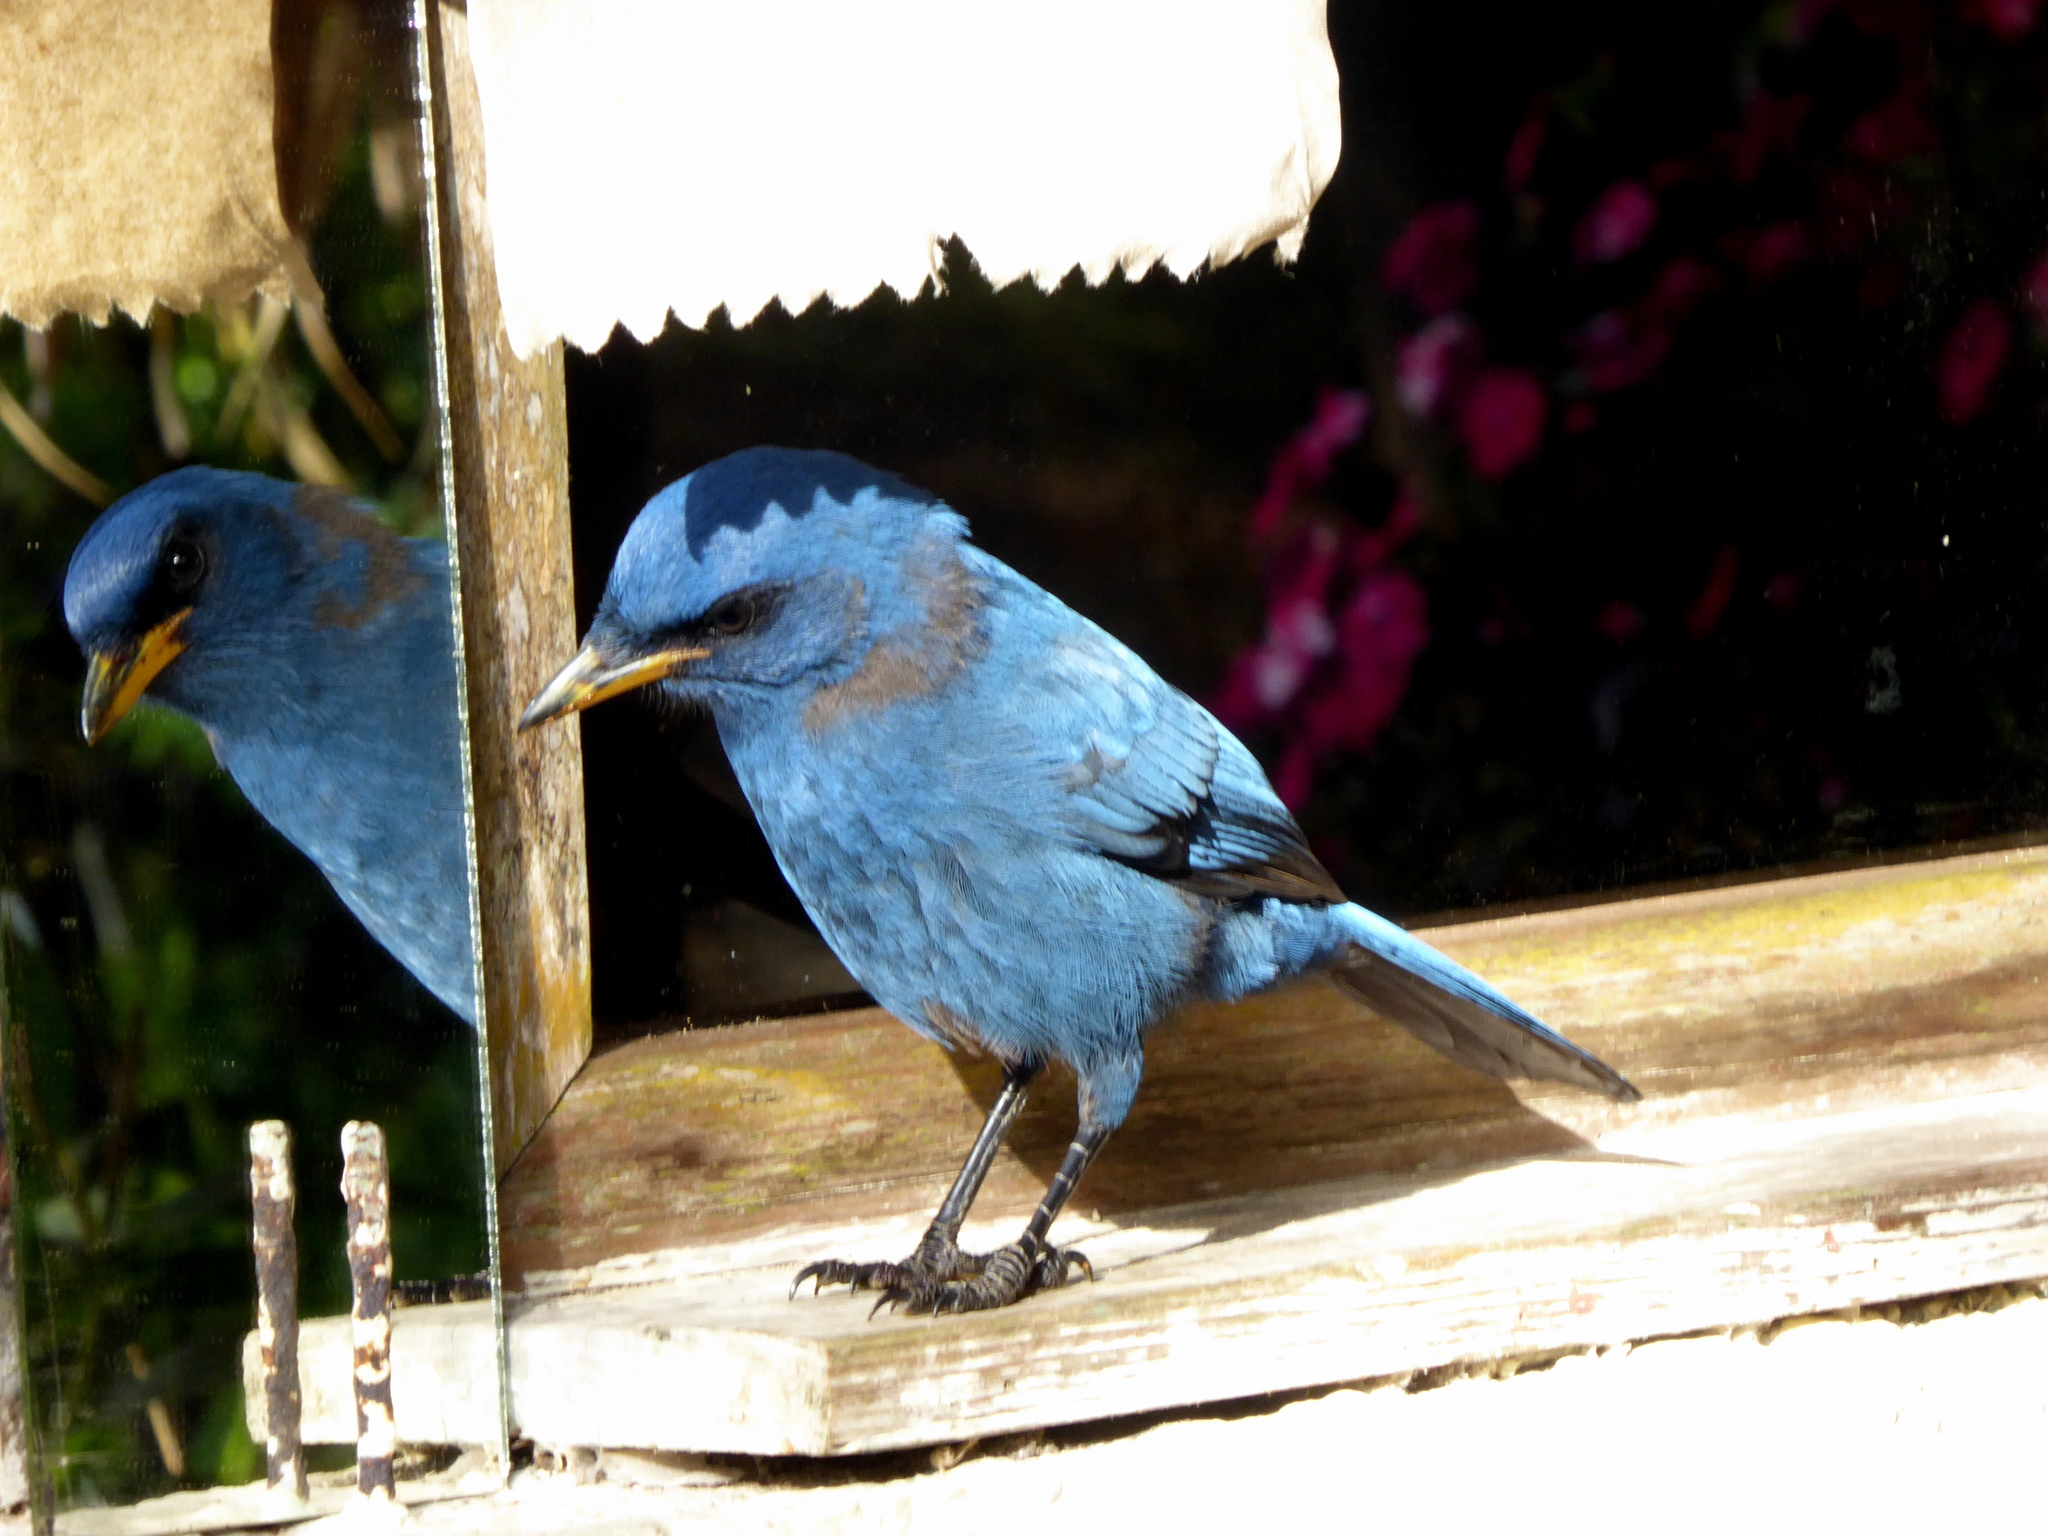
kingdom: Animalia
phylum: Chordata
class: Aves
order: Passeriformes
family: Corvidae
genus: Aphelocoma
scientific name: Aphelocoma unicolor
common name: Unicolored jay
